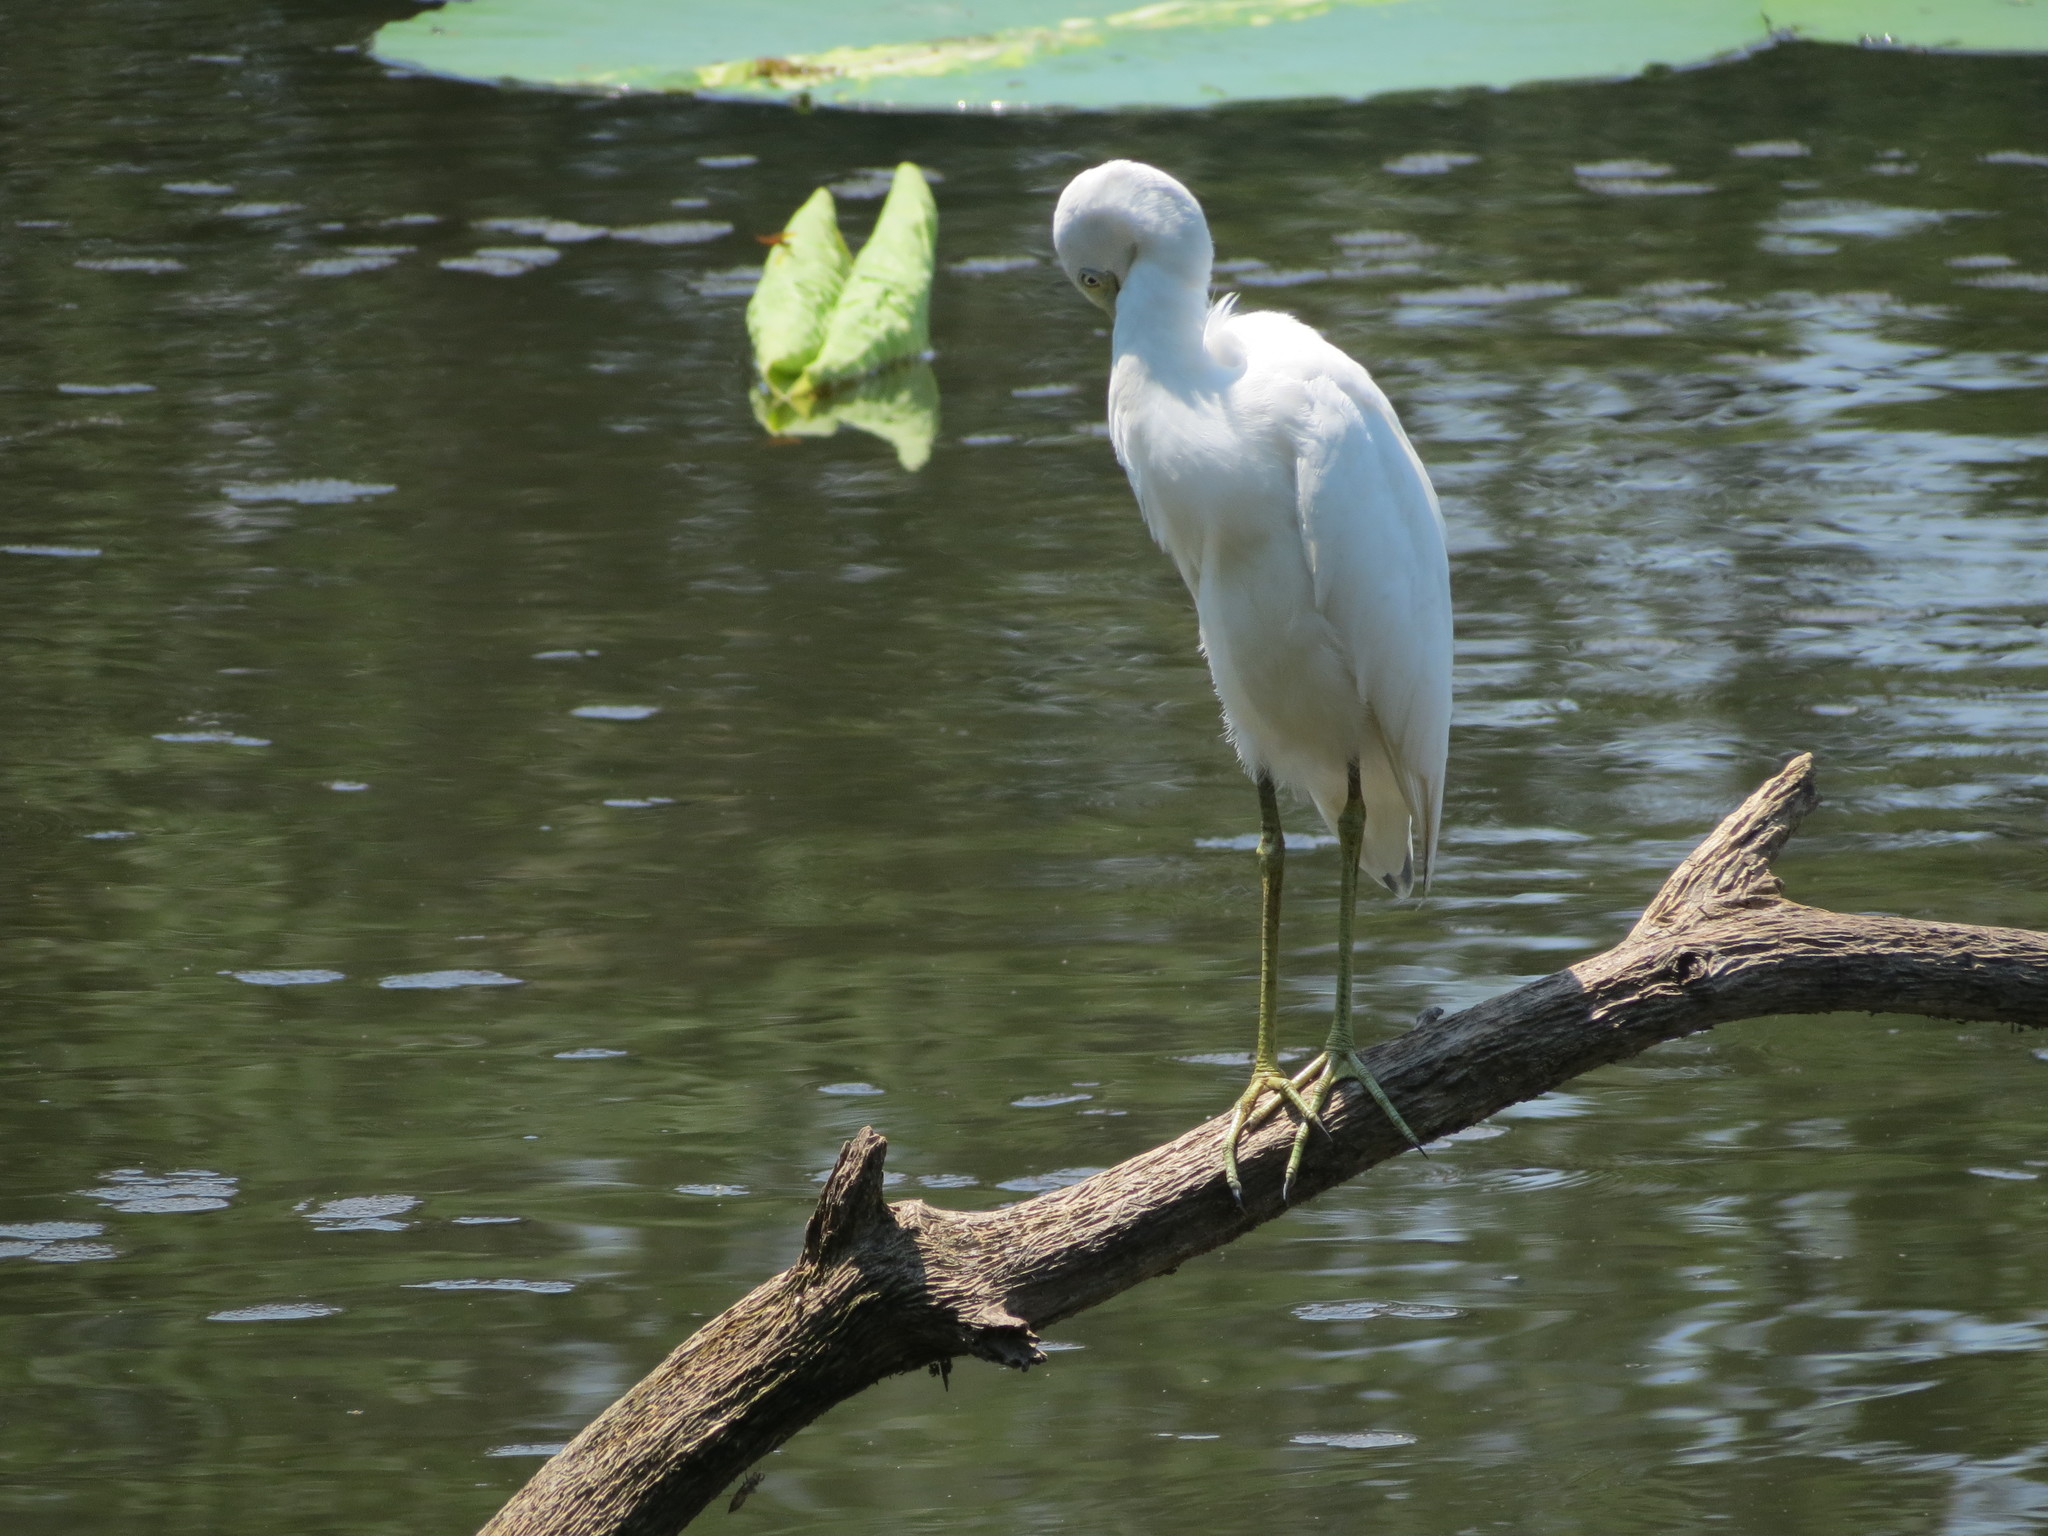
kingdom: Animalia
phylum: Chordata
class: Aves
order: Pelecaniformes
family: Ardeidae
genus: Egretta
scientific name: Egretta caerulea
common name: Little blue heron
